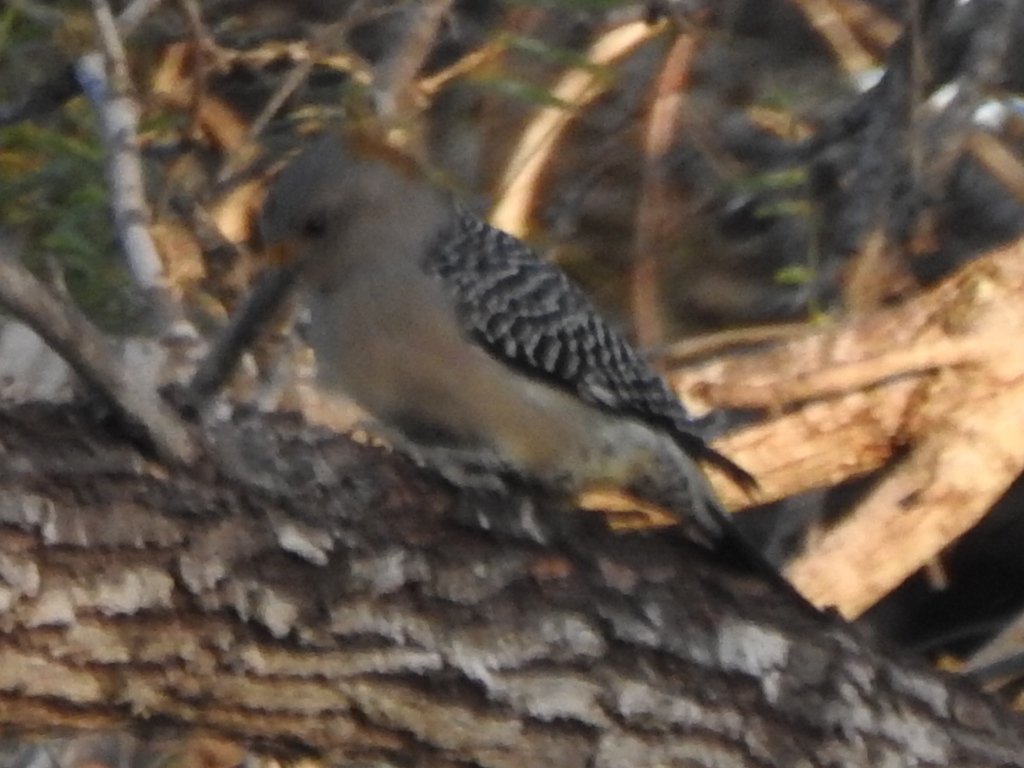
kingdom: Animalia
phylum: Chordata
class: Aves
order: Piciformes
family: Picidae
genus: Melanerpes
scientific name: Melanerpes aurifrons
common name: Golden-fronted woodpecker
